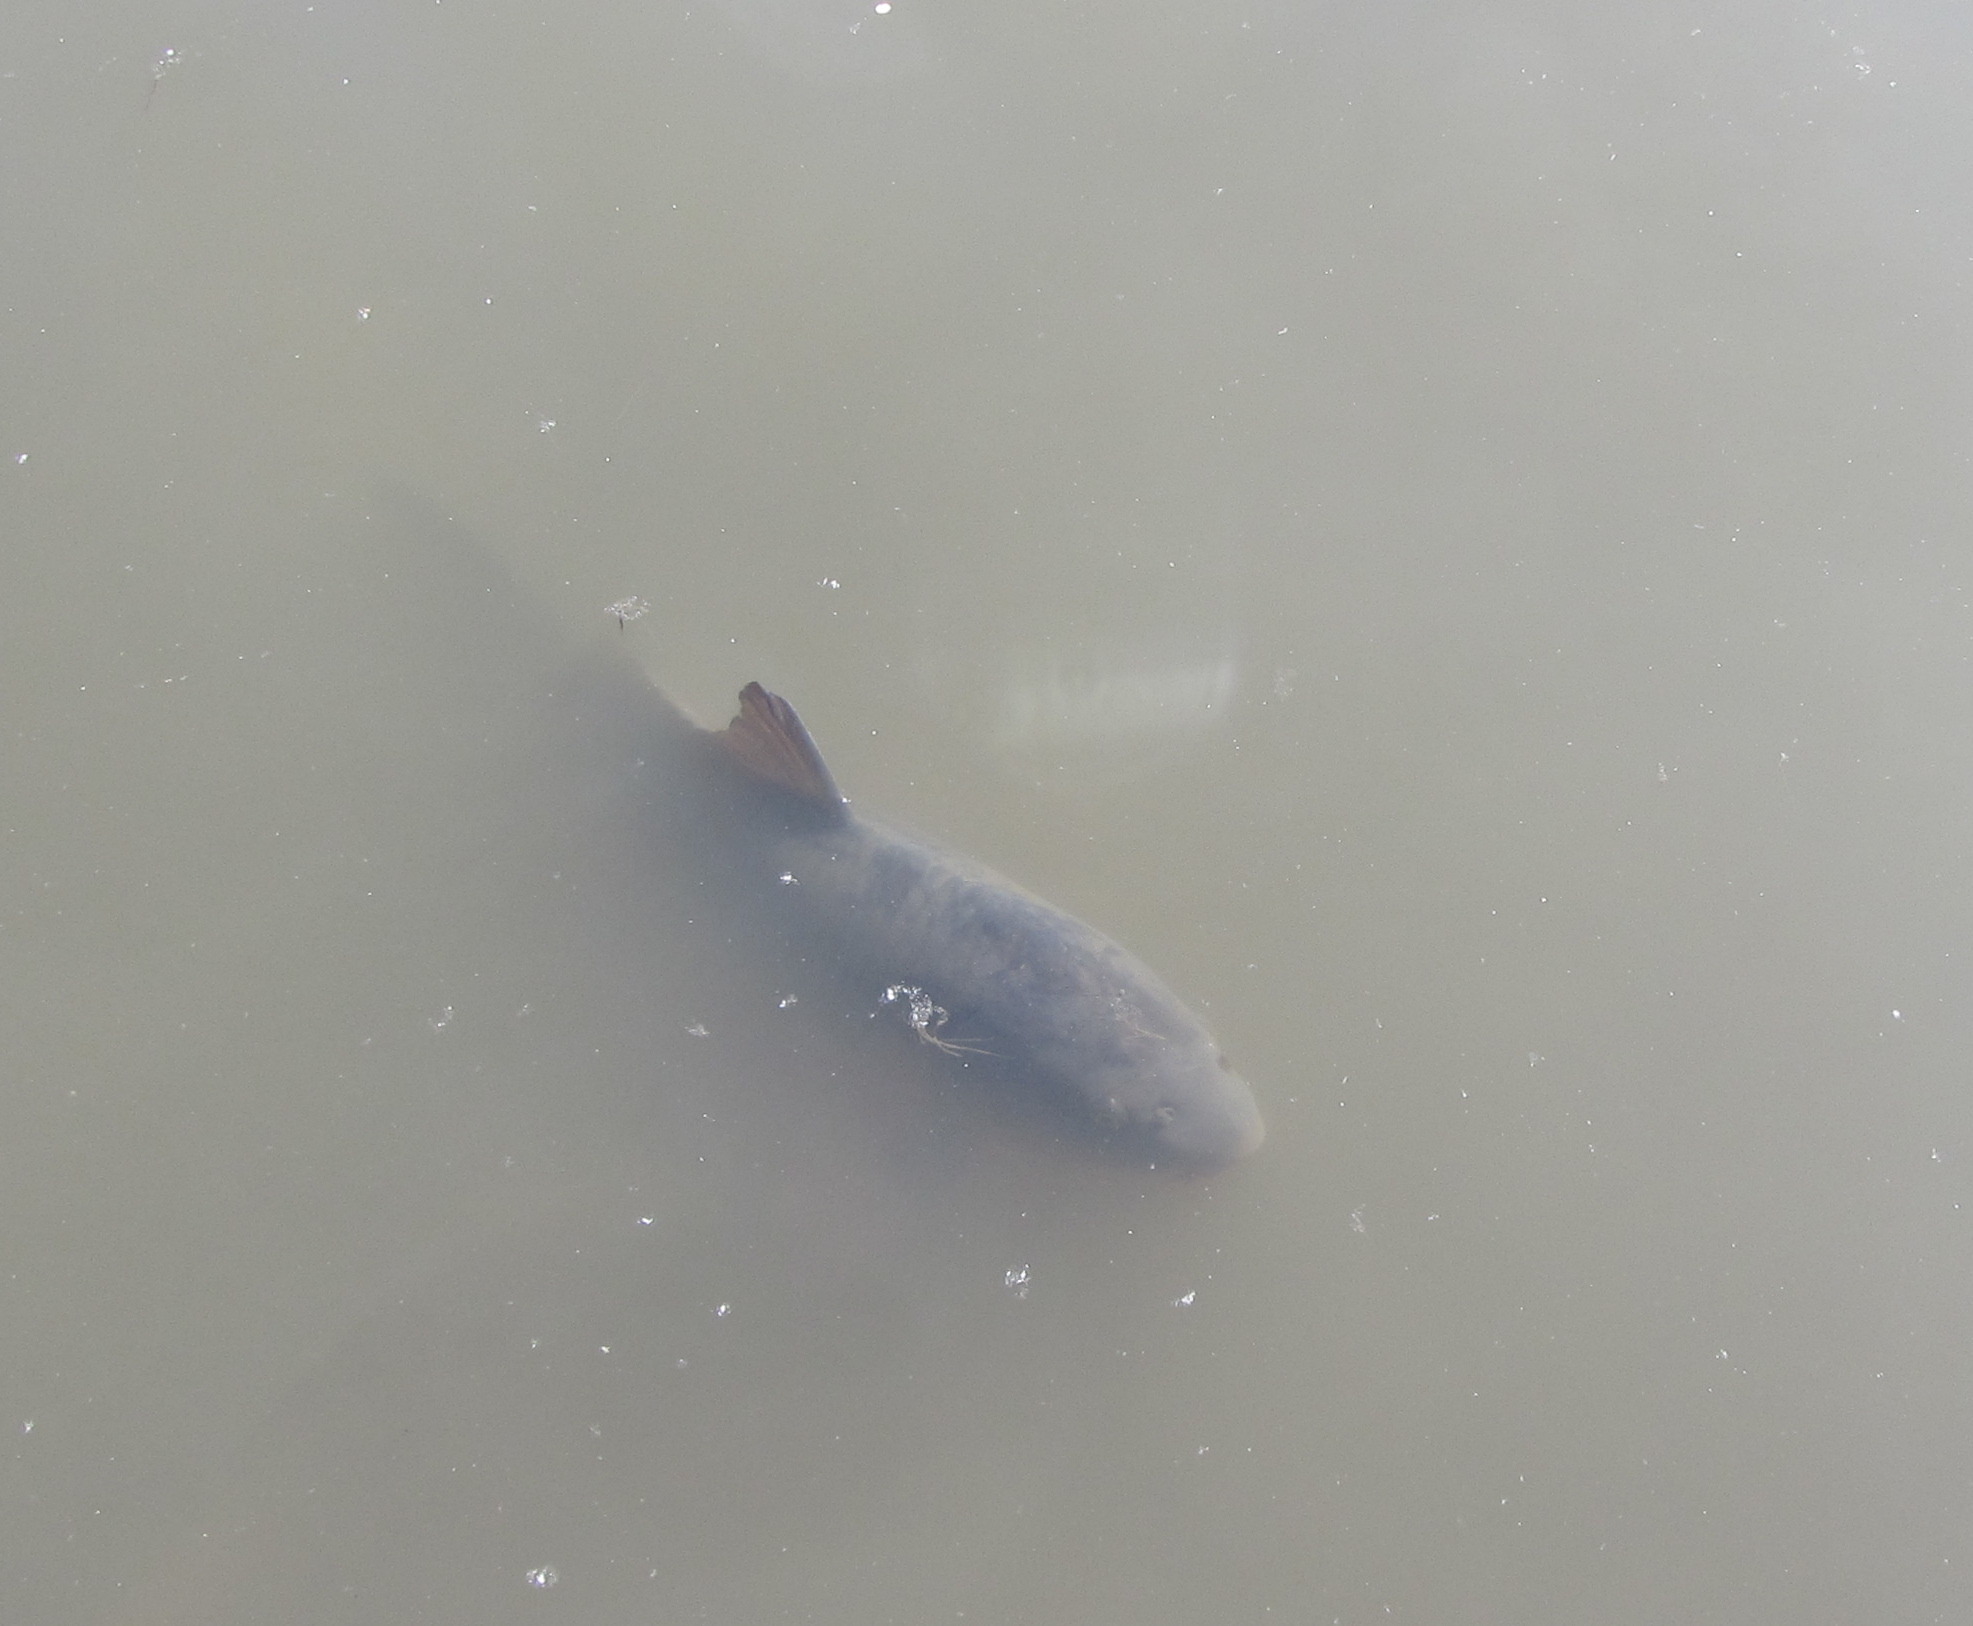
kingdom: Animalia
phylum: Chordata
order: Cypriniformes
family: Cyprinidae
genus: Cyprinus
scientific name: Cyprinus carpio
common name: Common carp
